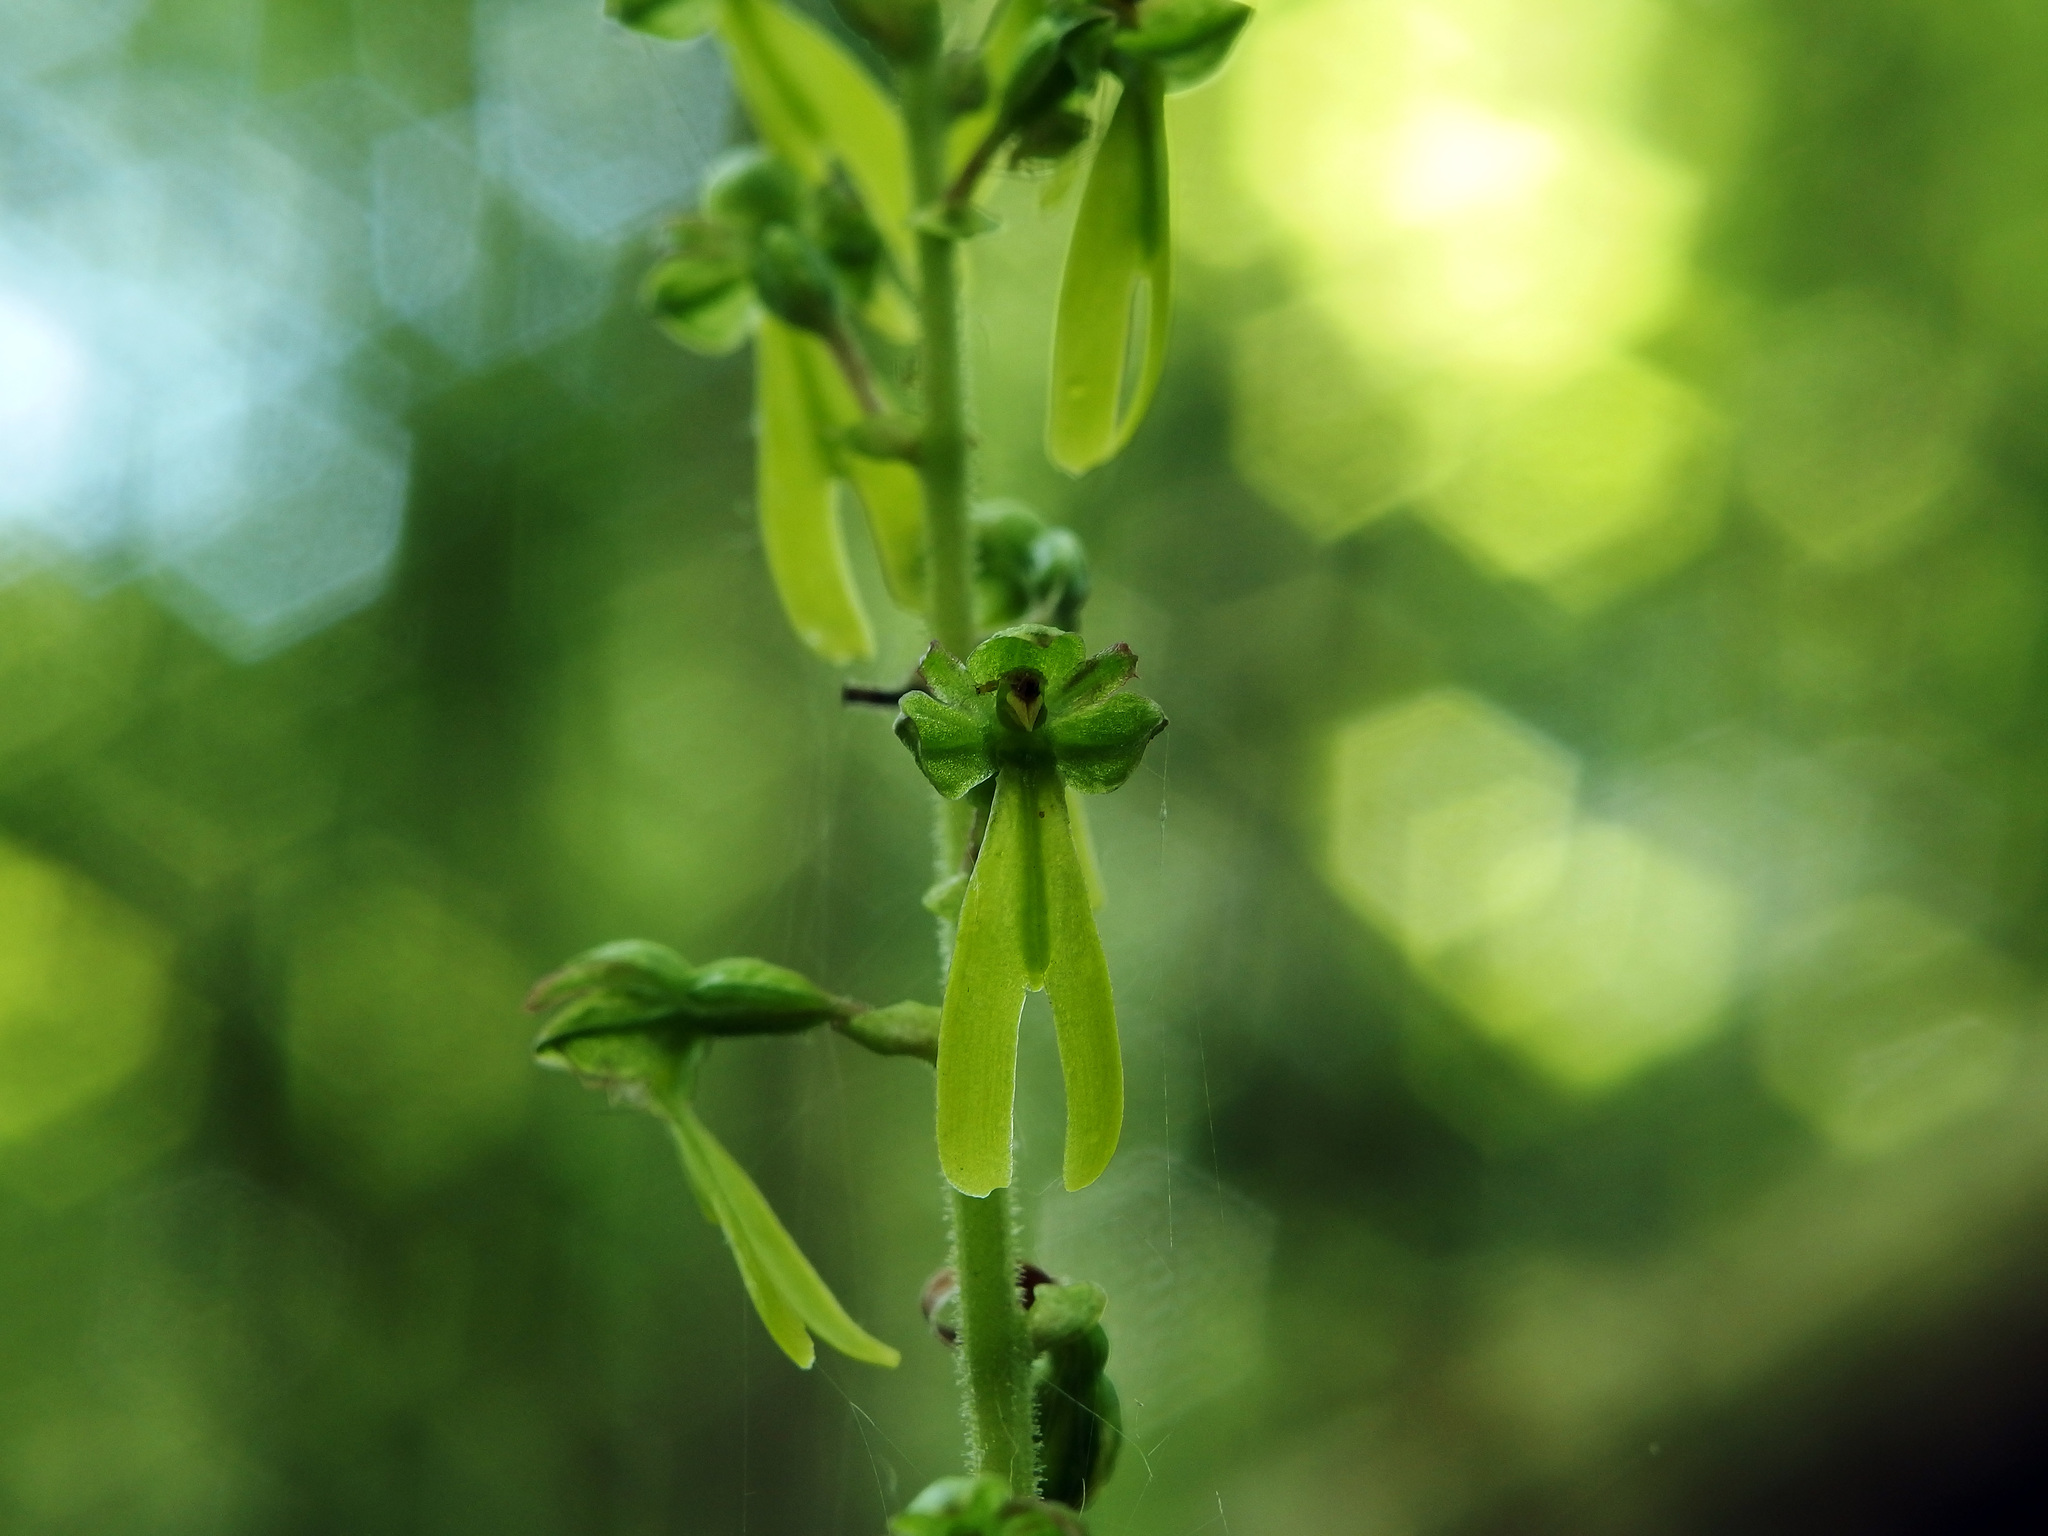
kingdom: Plantae
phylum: Tracheophyta
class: Liliopsida
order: Asparagales
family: Orchidaceae
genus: Neottia
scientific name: Neottia ovata
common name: Common twayblade
